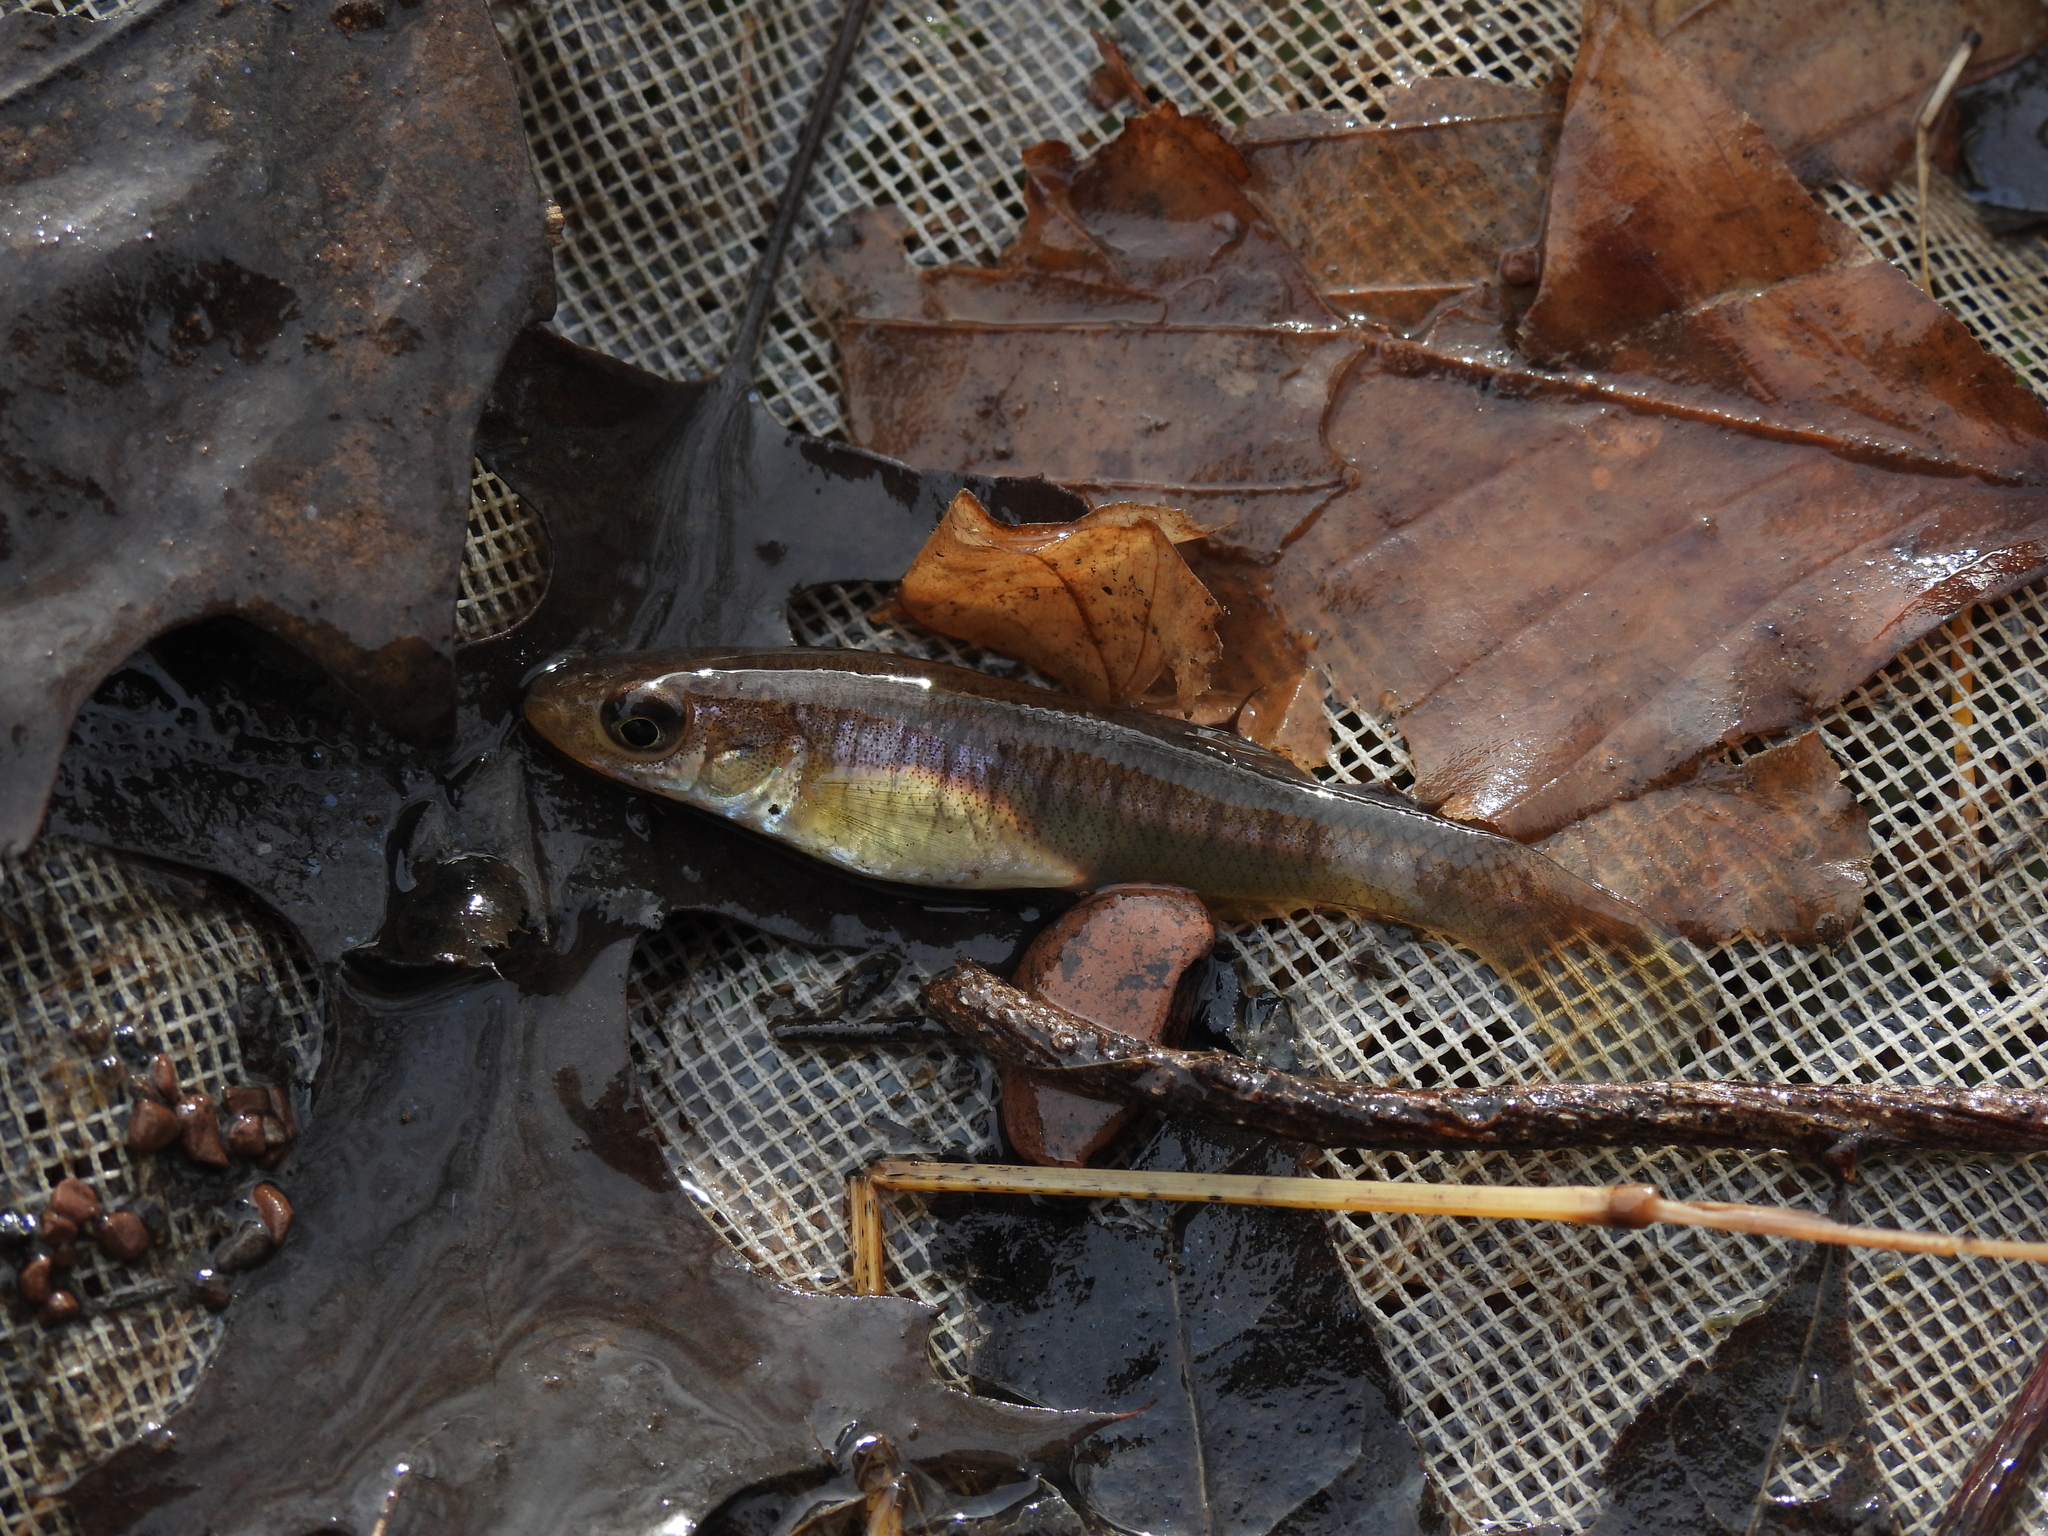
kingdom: Animalia
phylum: Chordata
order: Cyprinodontiformes
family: Fundulidae
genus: Fundulus
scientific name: Fundulus diaphanus
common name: Banded killifish
